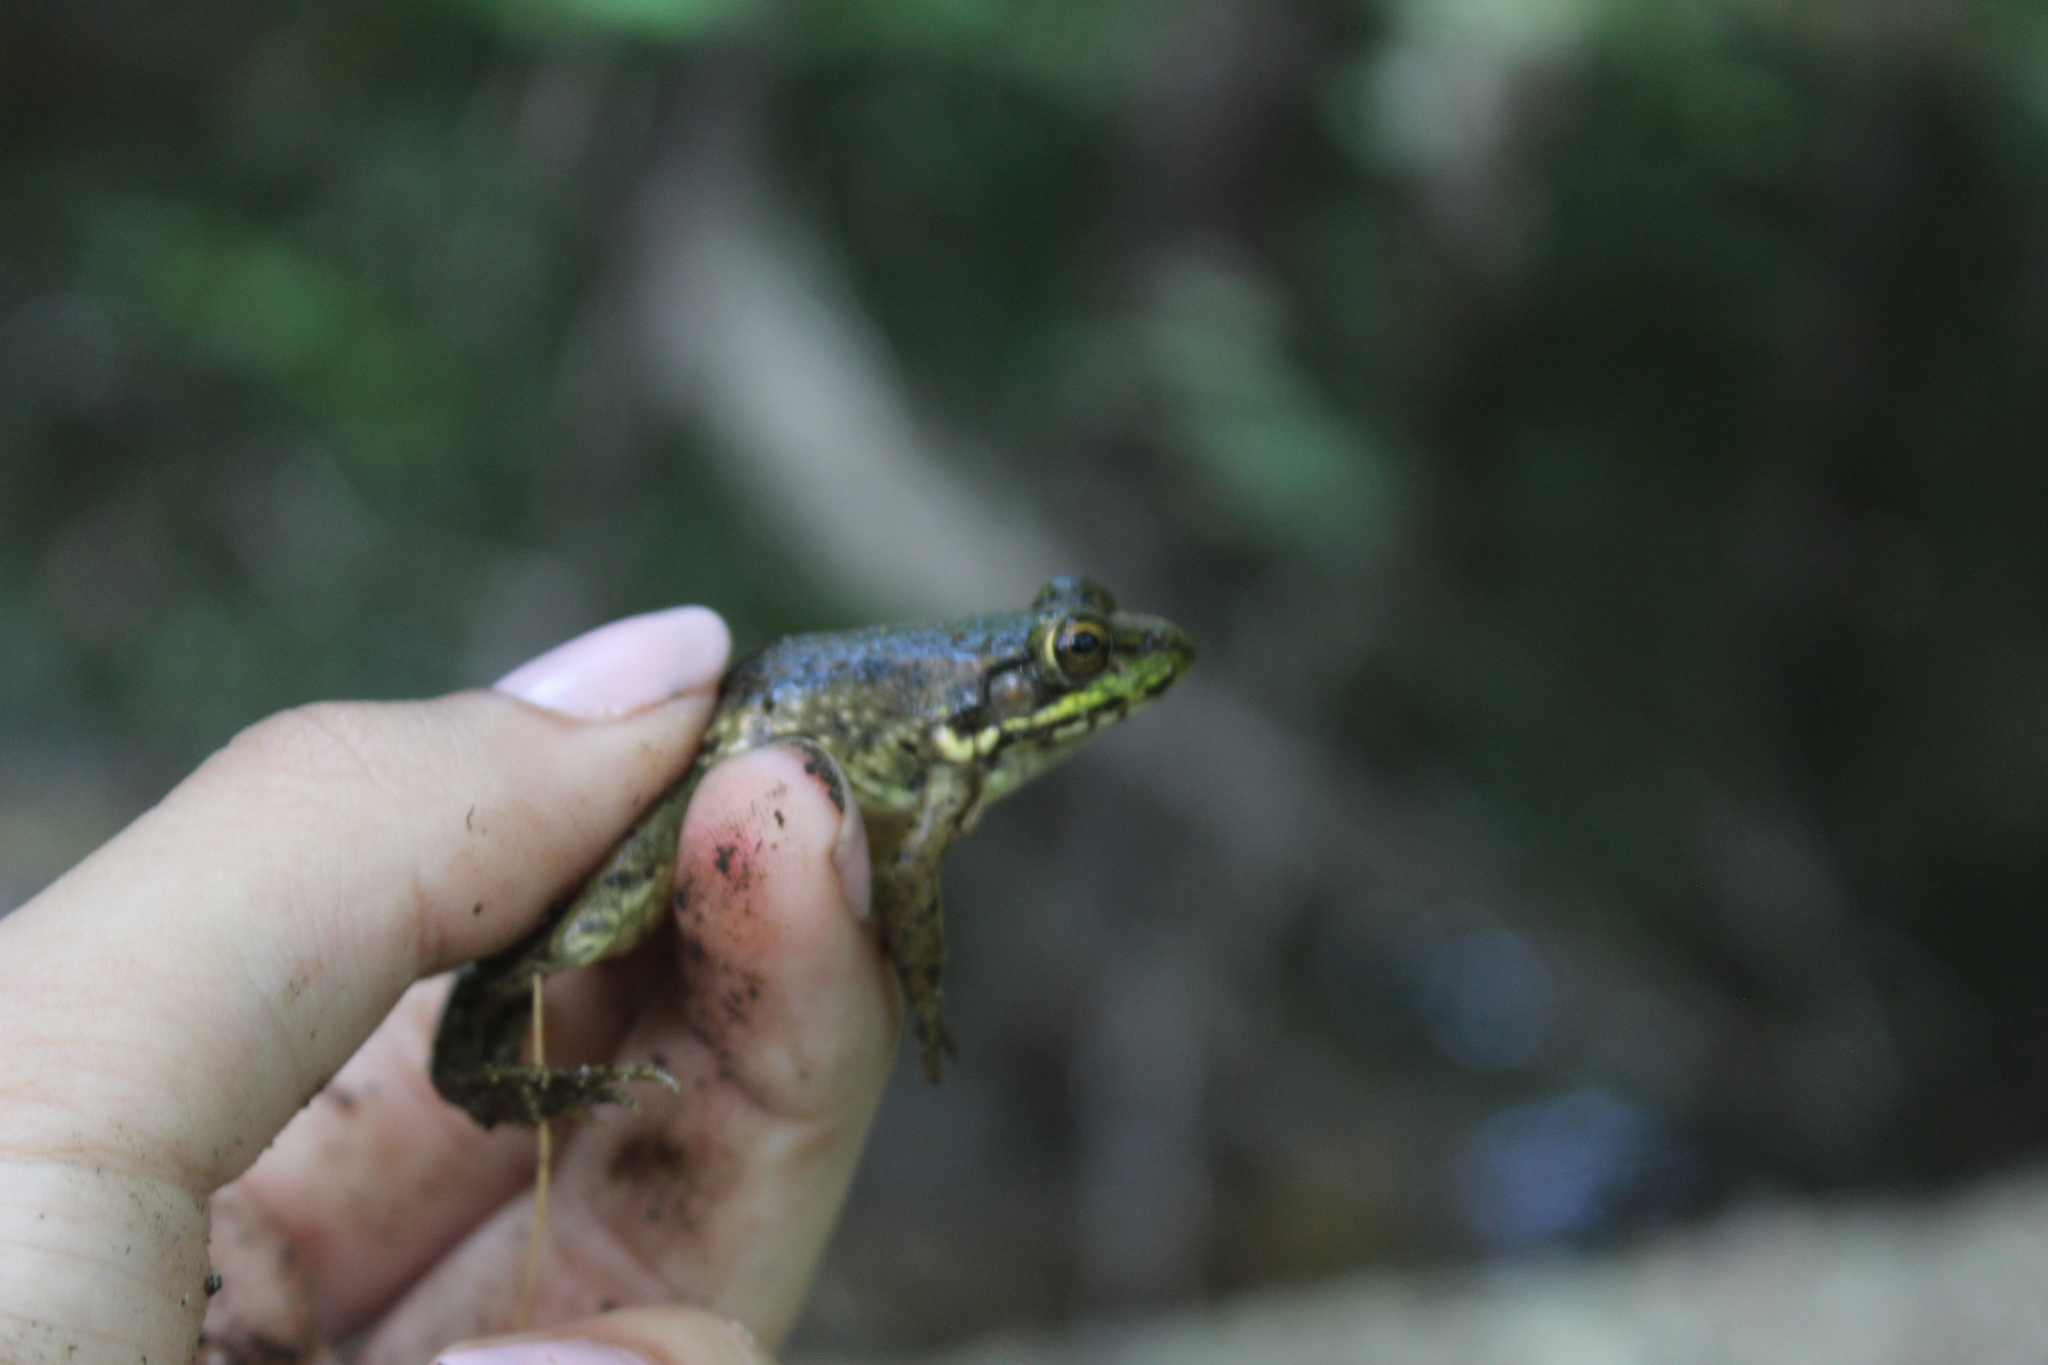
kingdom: Animalia
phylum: Chordata
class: Amphibia
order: Anura
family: Ranidae
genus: Lithobates
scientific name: Lithobates clamitans
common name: Green frog
